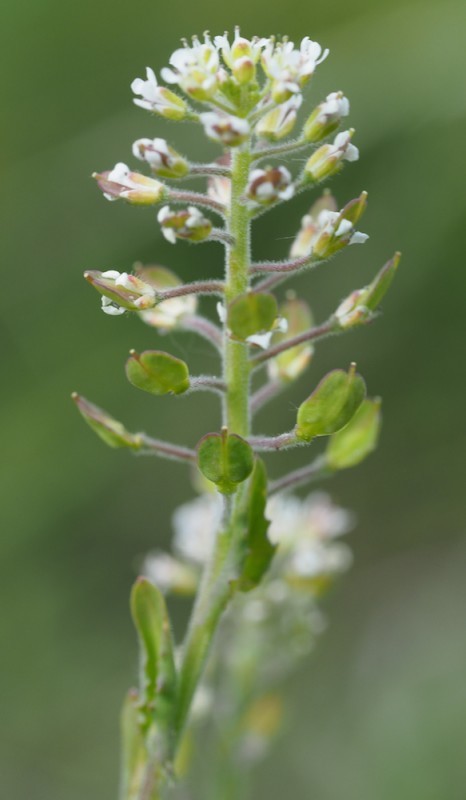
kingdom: Plantae
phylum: Tracheophyta
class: Magnoliopsida
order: Brassicales
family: Brassicaceae
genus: Lepidium
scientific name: Lepidium campestre
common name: Field pepperwort
